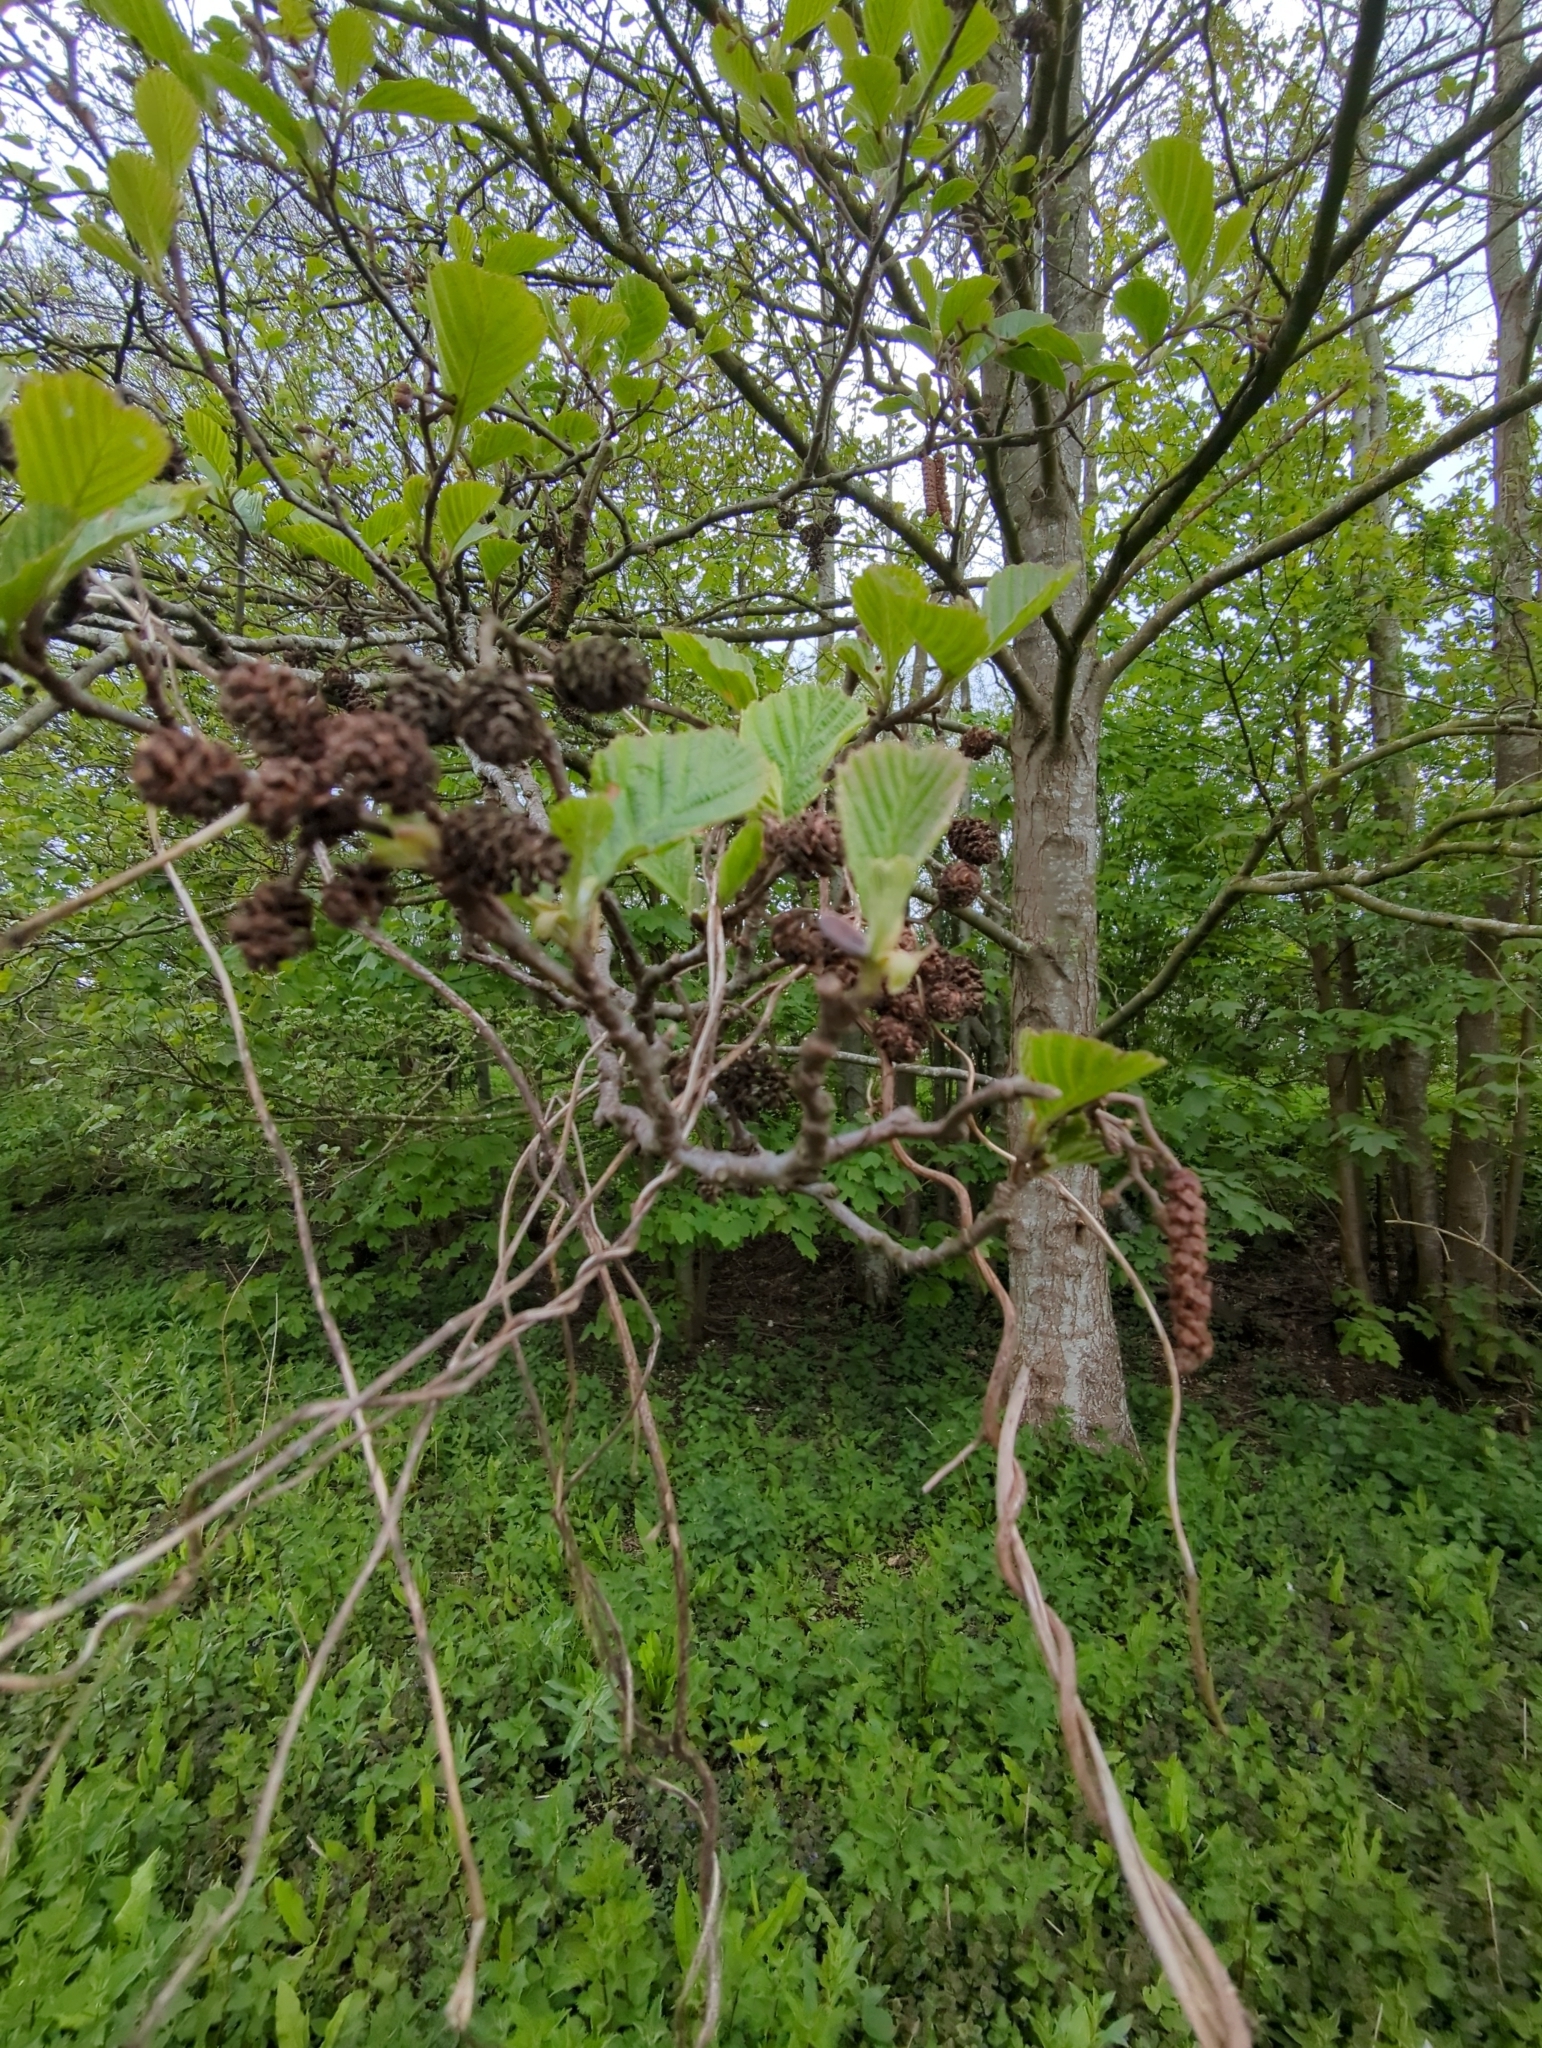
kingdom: Plantae
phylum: Tracheophyta
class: Magnoliopsida
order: Fagales
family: Betulaceae
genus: Alnus
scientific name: Alnus glutinosa
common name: Black alder
